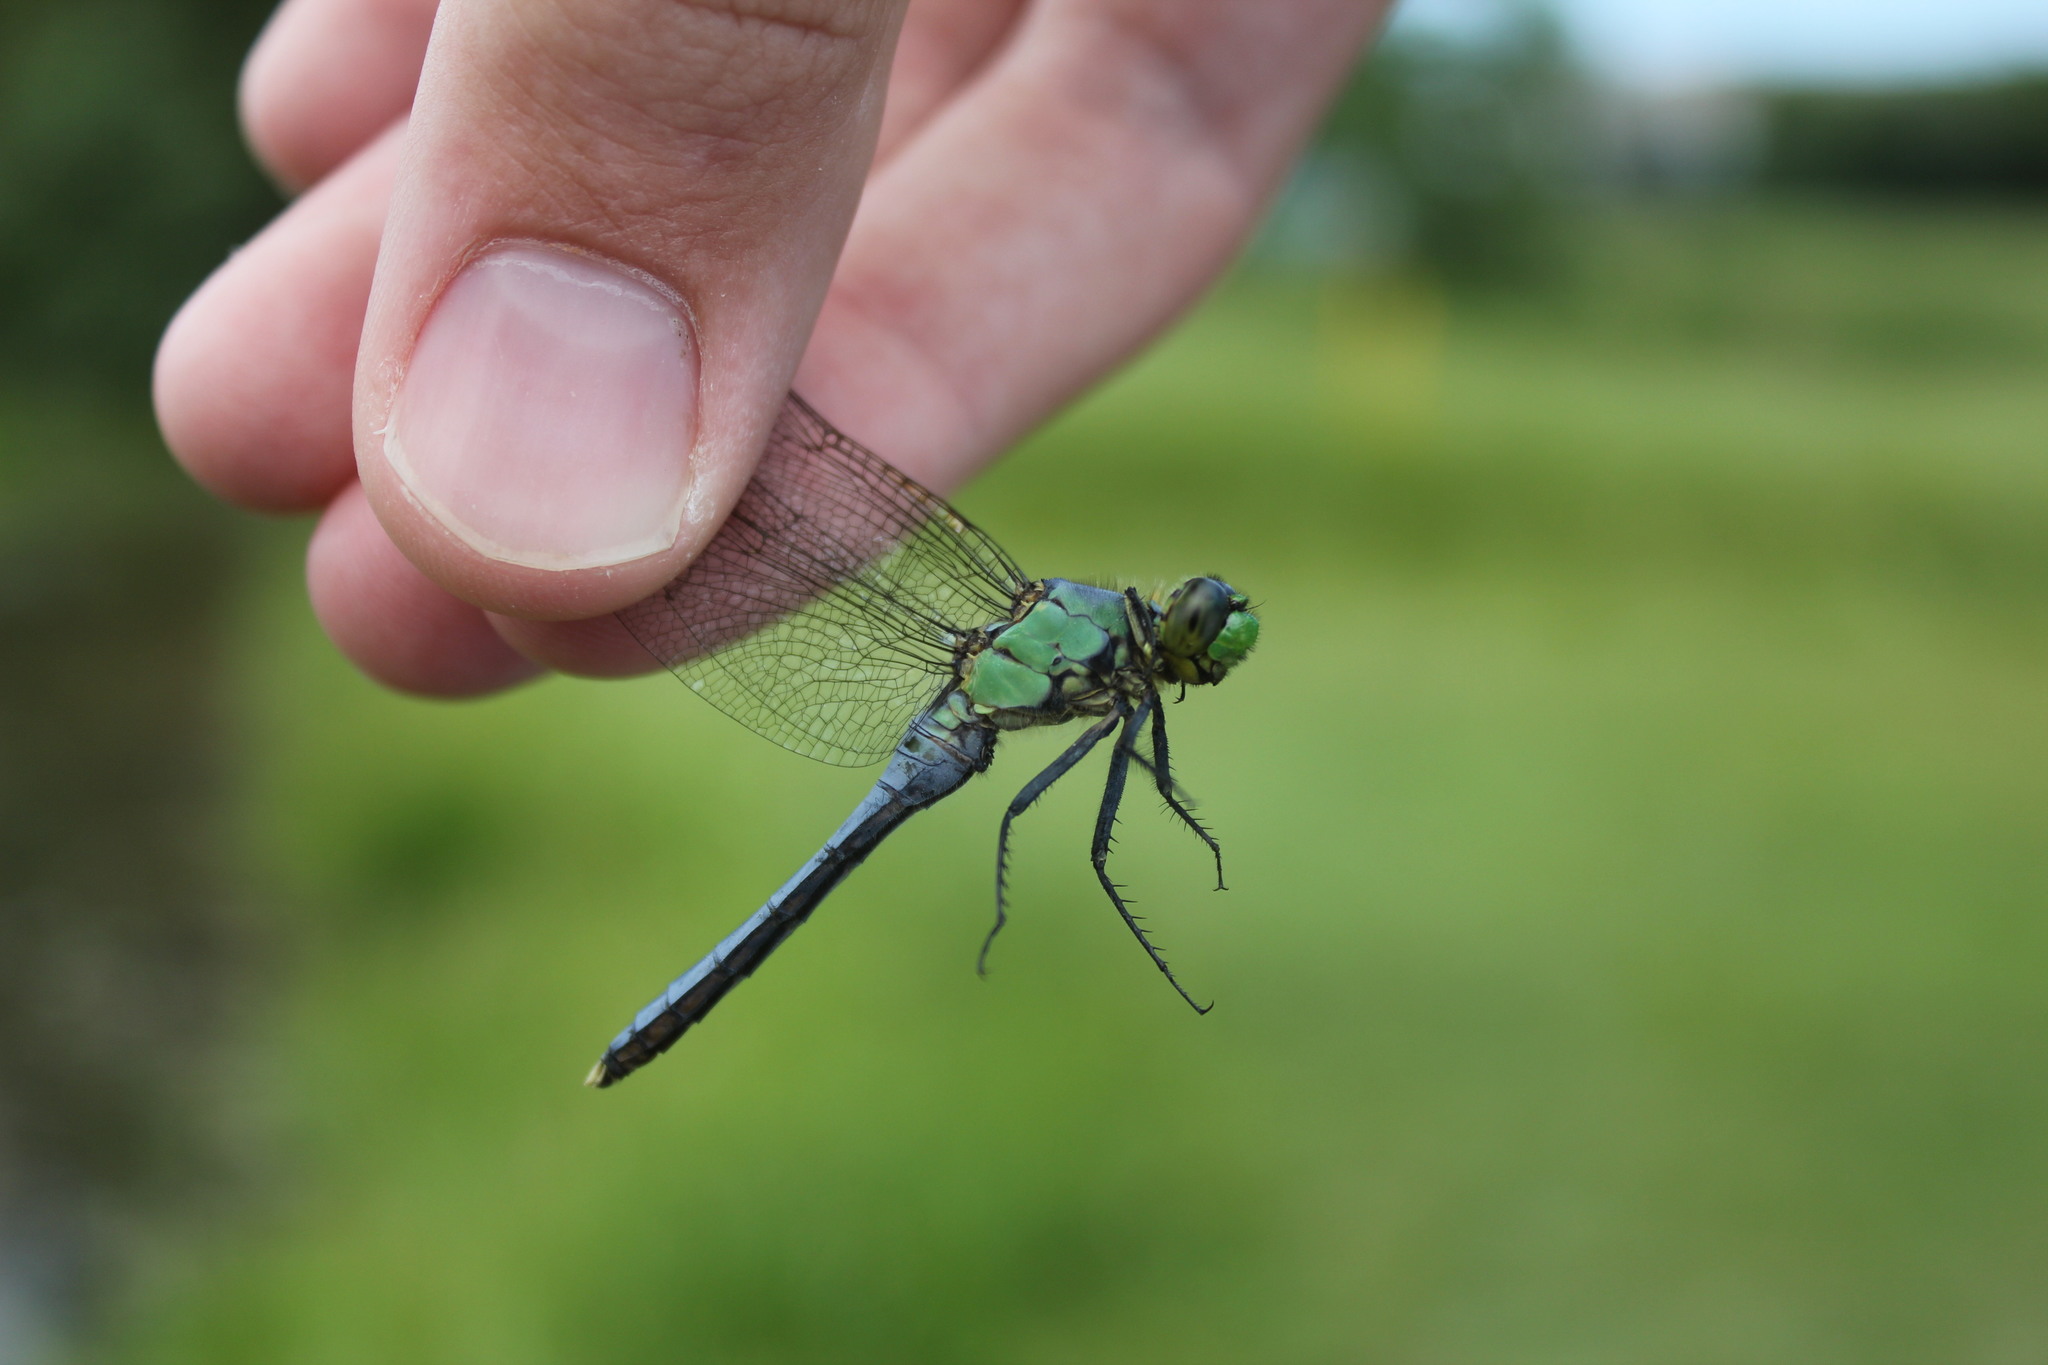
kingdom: Animalia
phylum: Arthropoda
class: Insecta
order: Odonata
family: Libellulidae
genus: Erythemis
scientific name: Erythemis simplicicollis
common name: Eastern pondhawk
